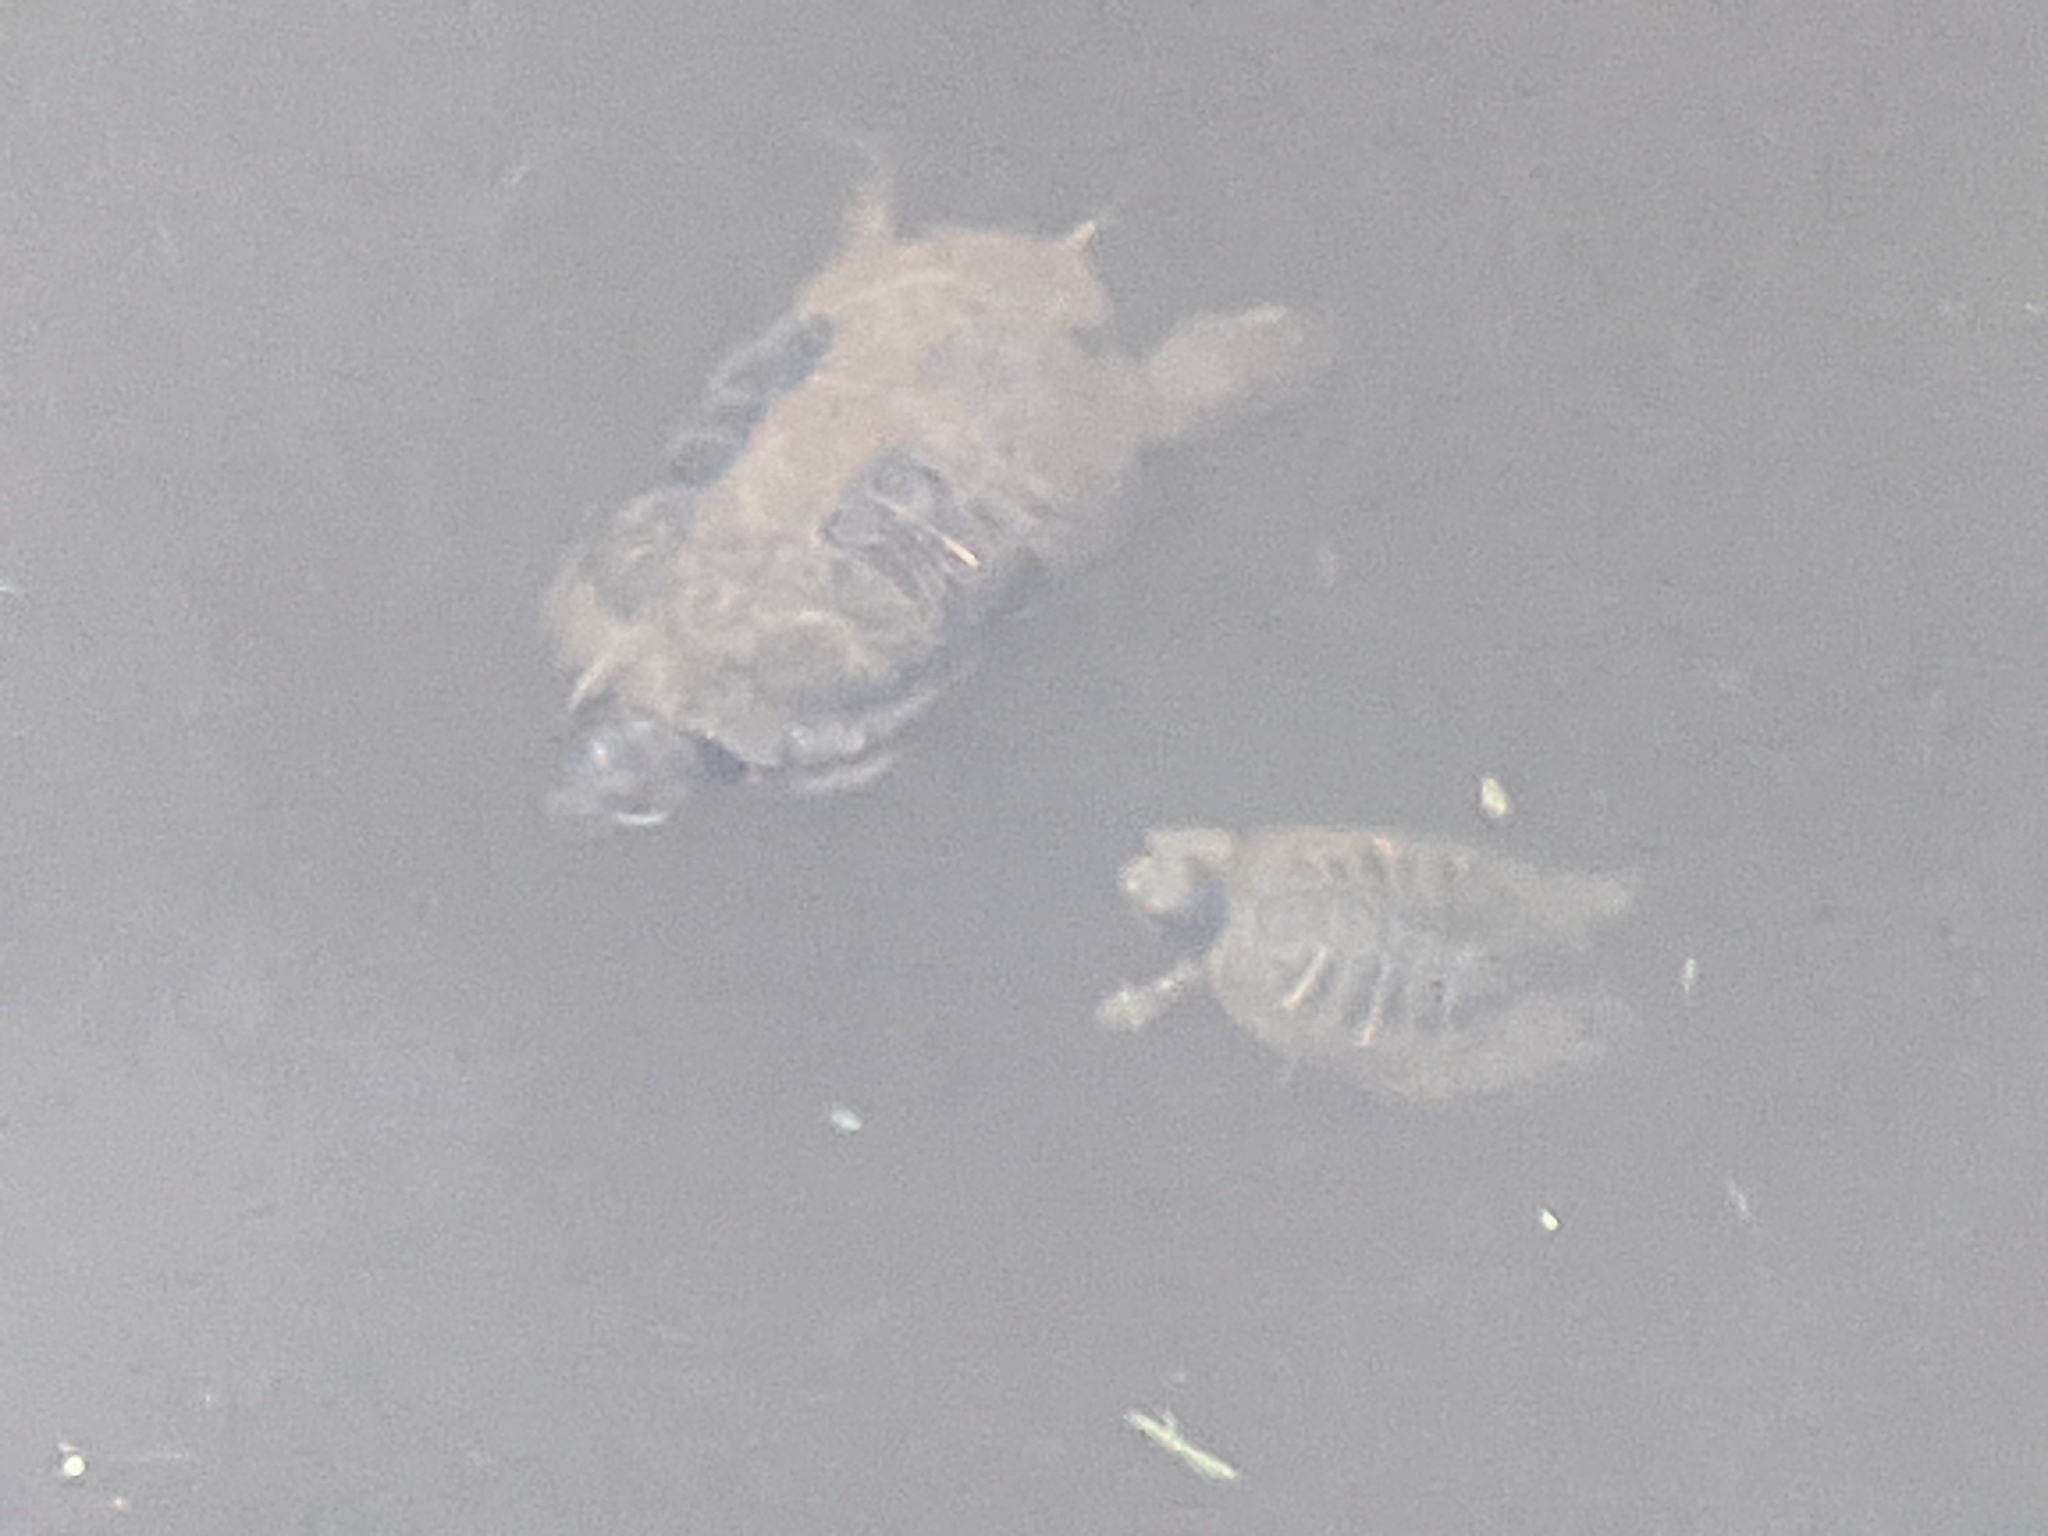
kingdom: Animalia
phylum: Chordata
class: Testudines
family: Emydidae
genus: Trachemys
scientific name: Trachemys scripta
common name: Slider
